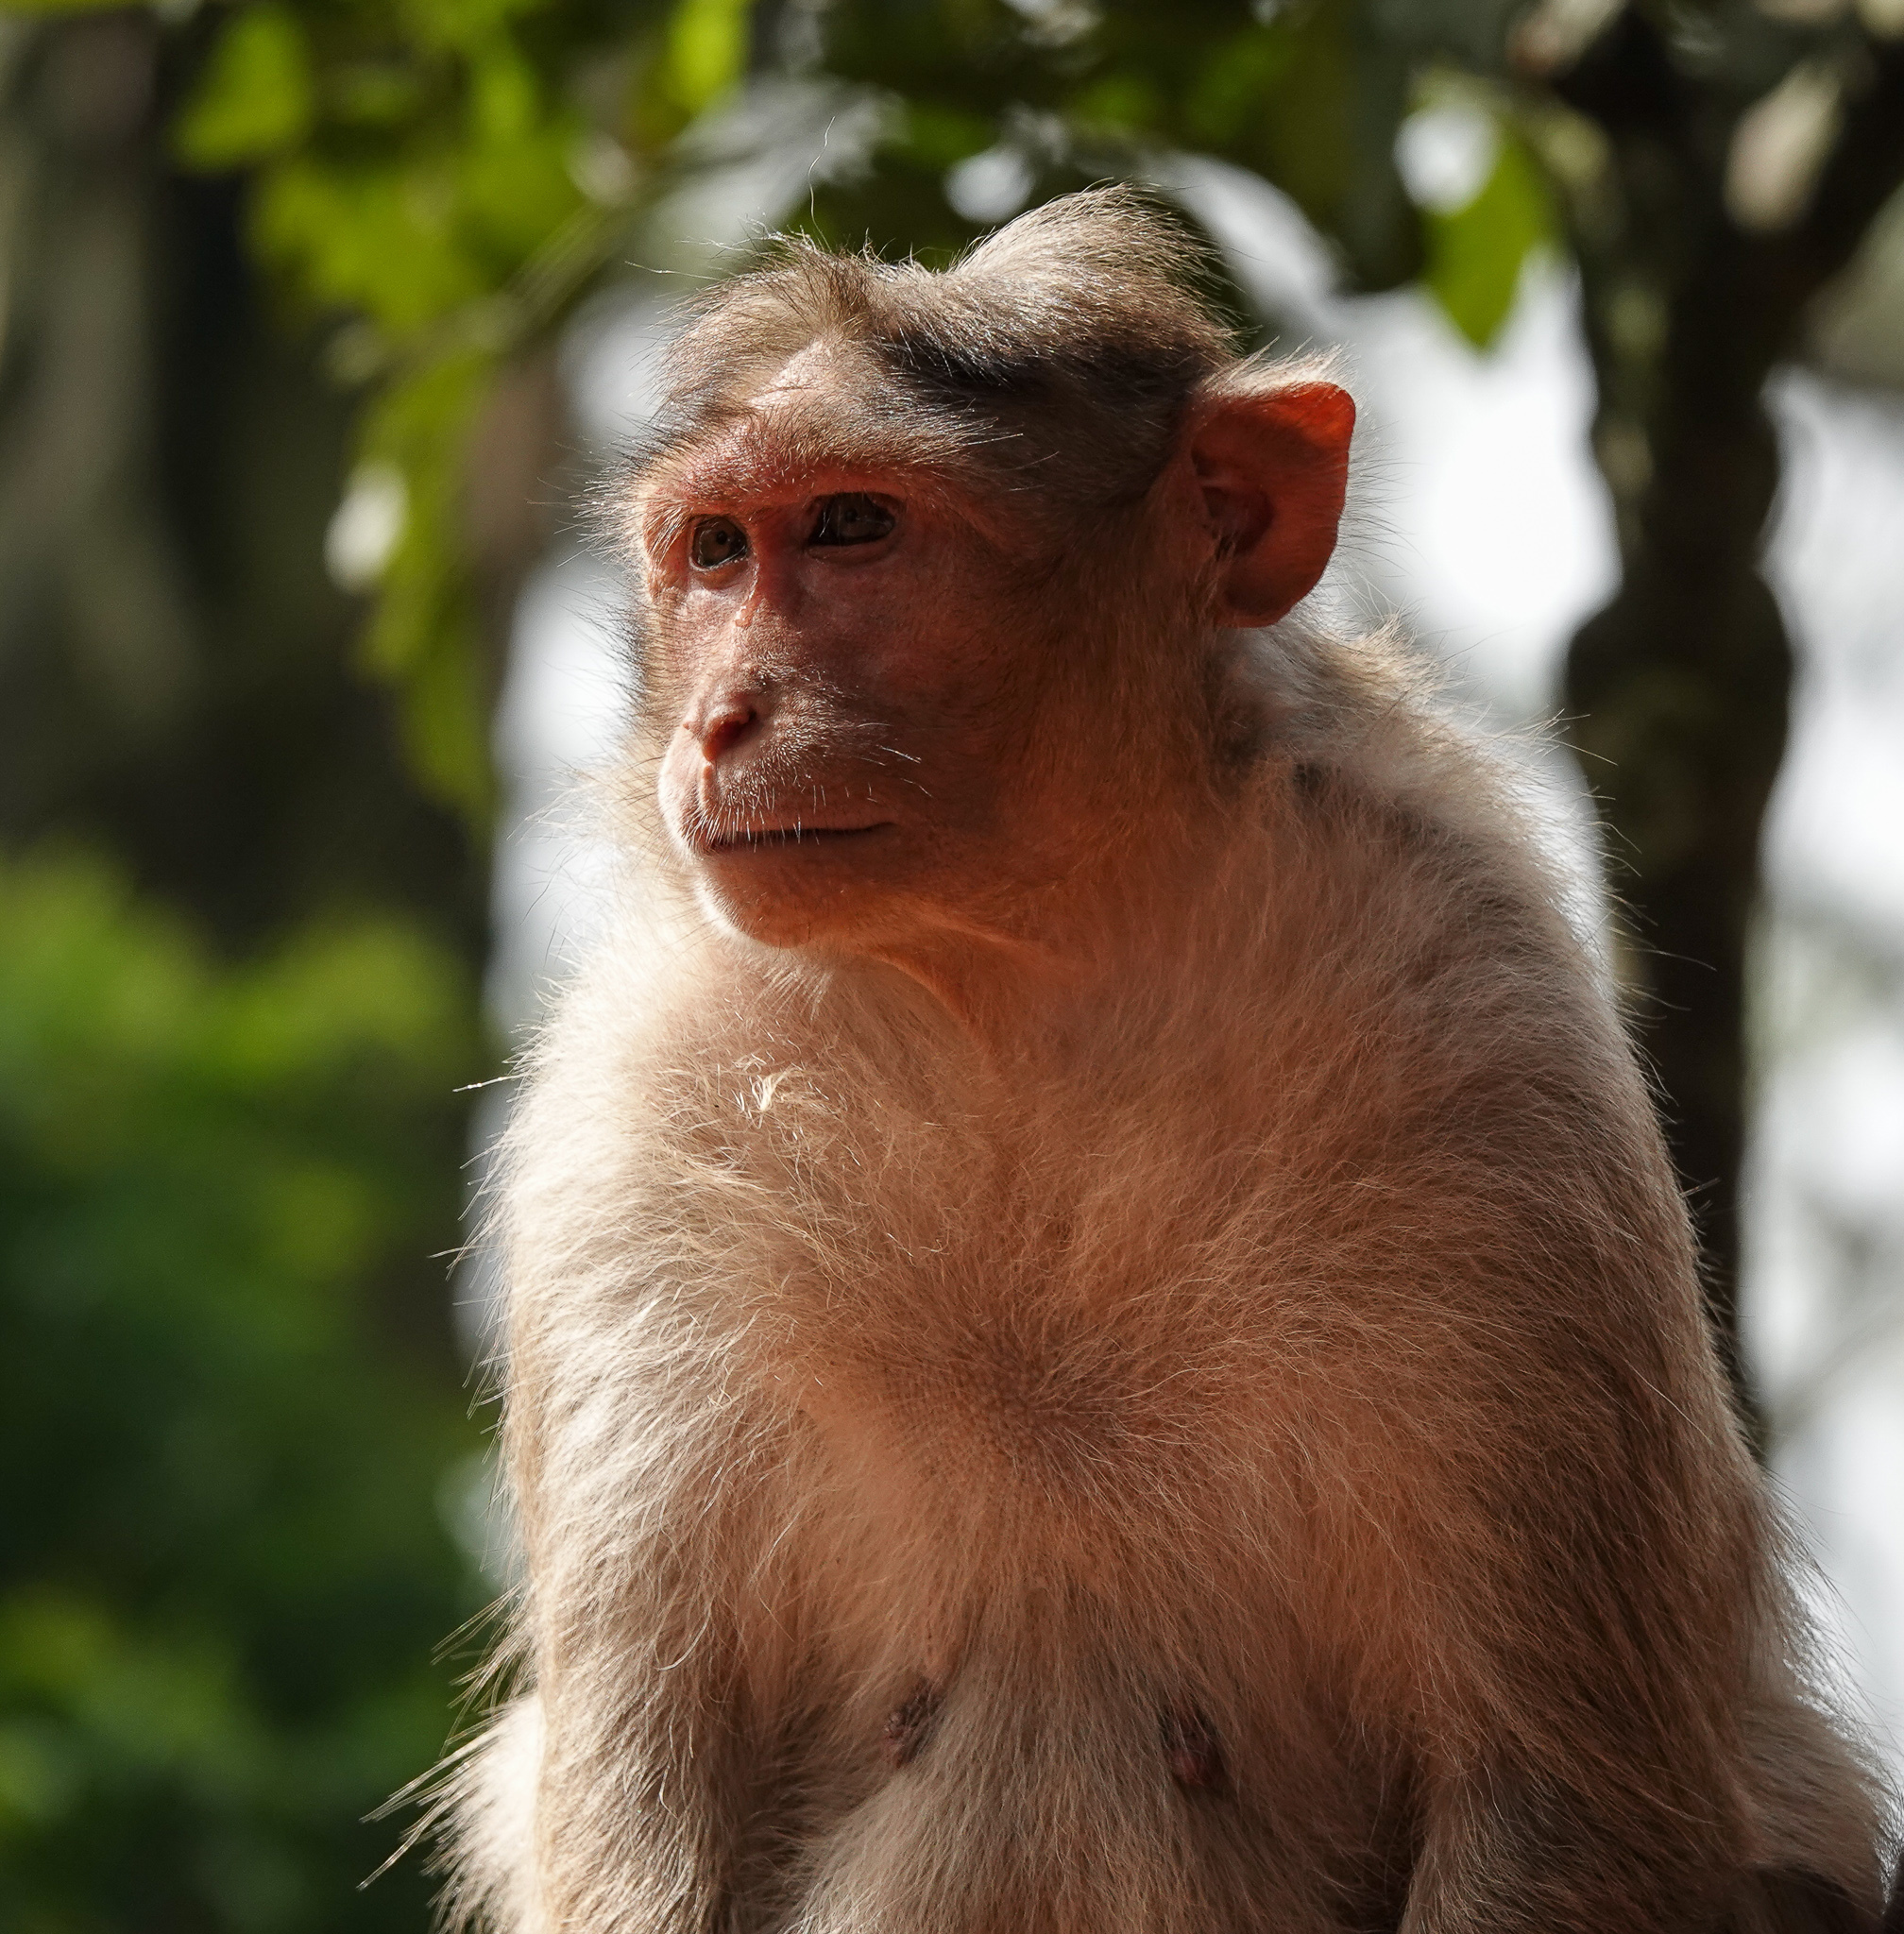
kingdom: Animalia
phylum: Chordata
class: Mammalia
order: Primates
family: Cercopithecidae
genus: Macaca
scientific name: Macaca radiata
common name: Bonnet macaque
